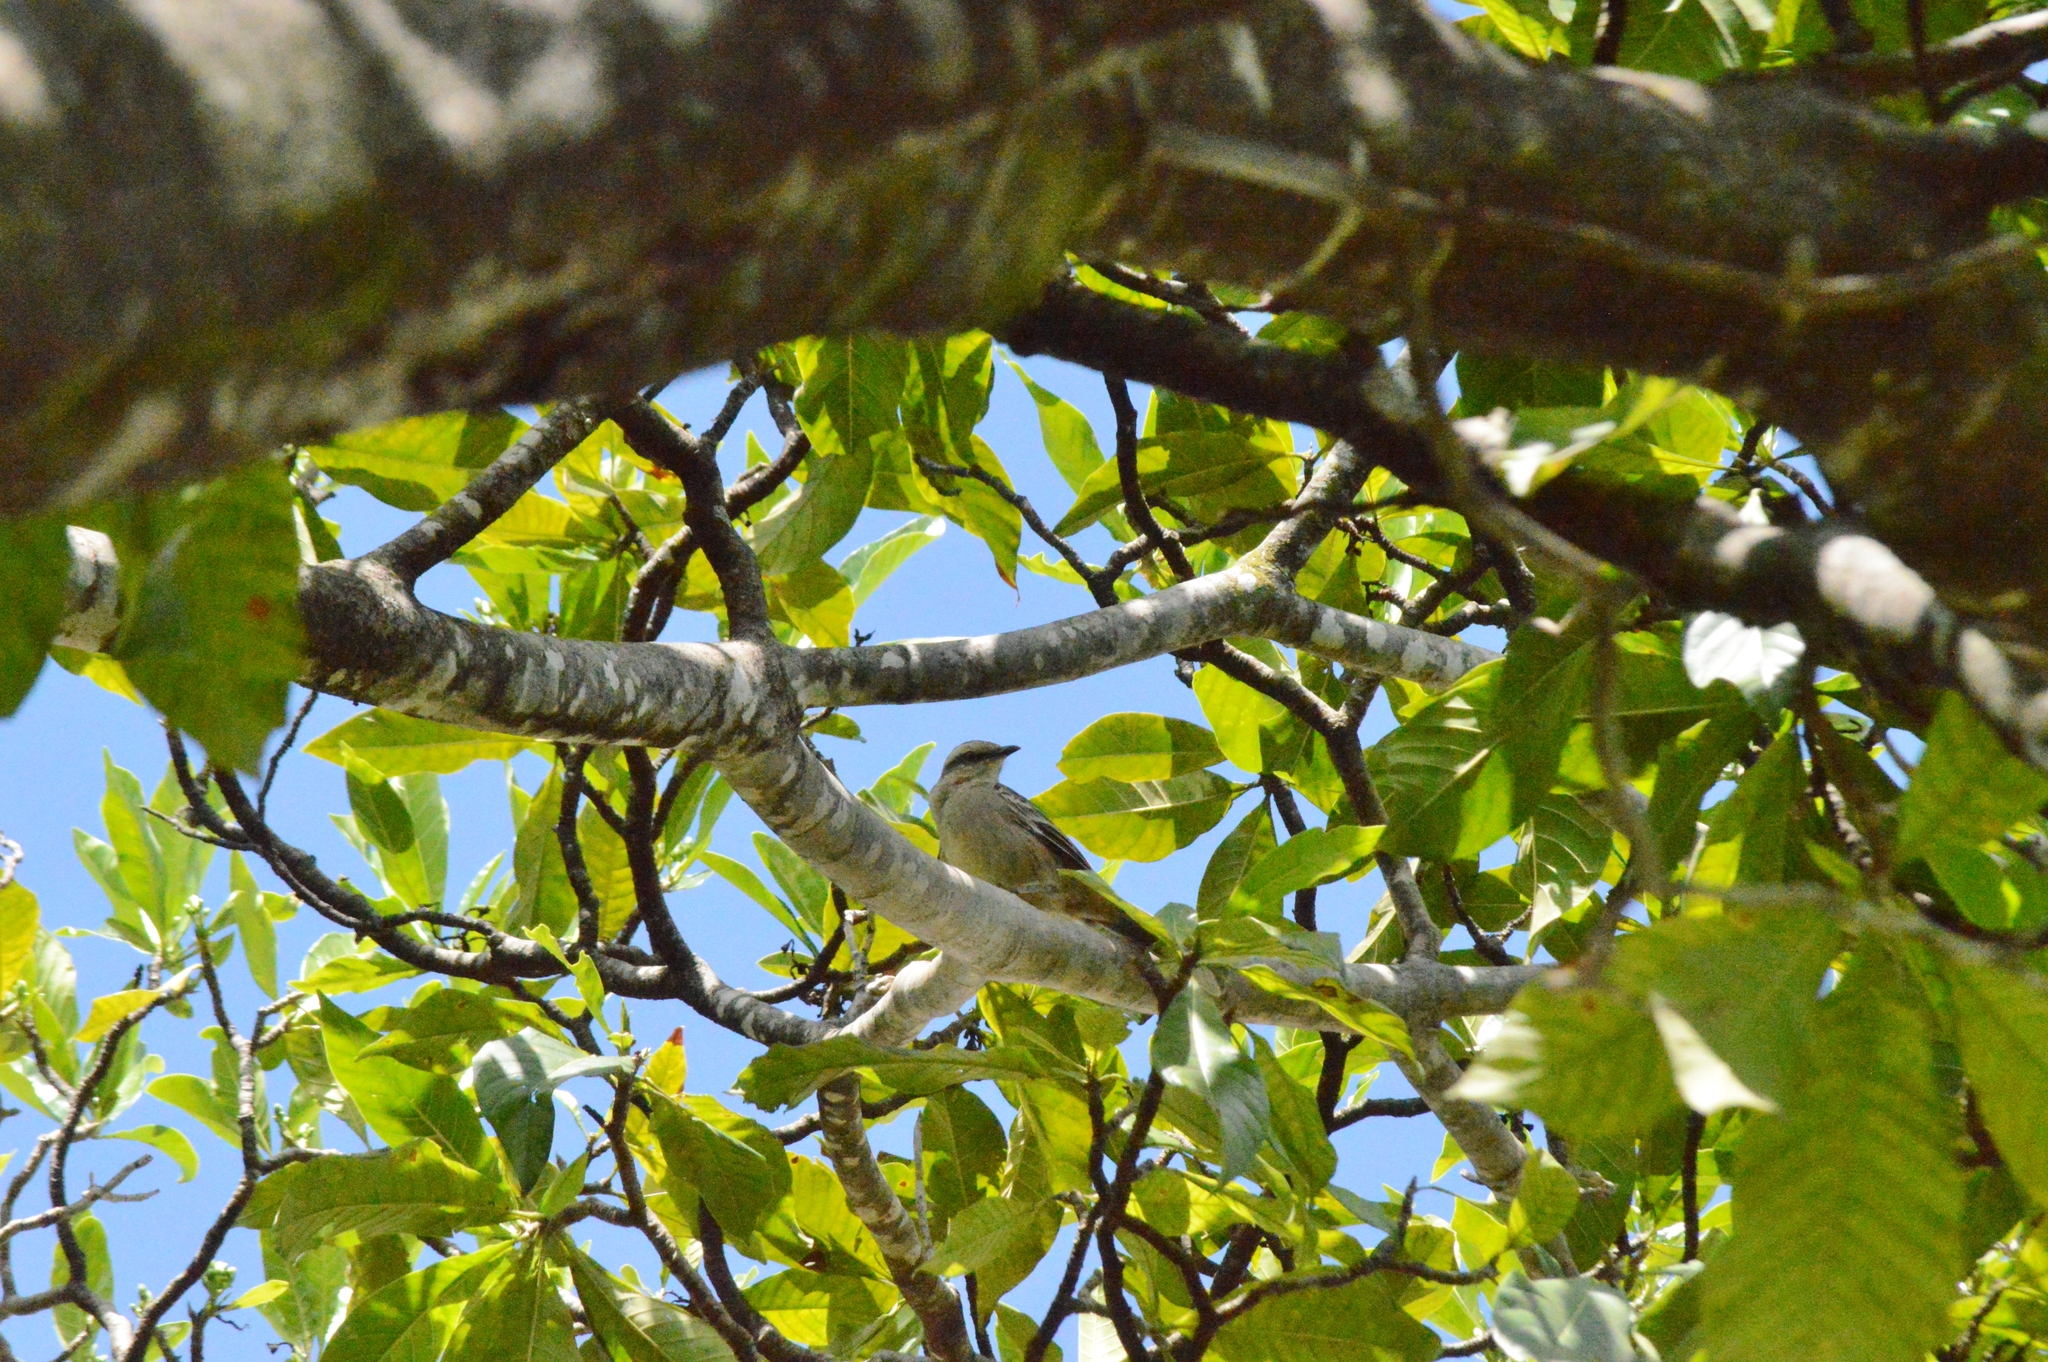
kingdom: Animalia
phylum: Chordata
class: Aves
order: Passeriformes
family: Mimidae
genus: Mimus
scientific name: Mimus saturninus
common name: Chalk-browed mockingbird
